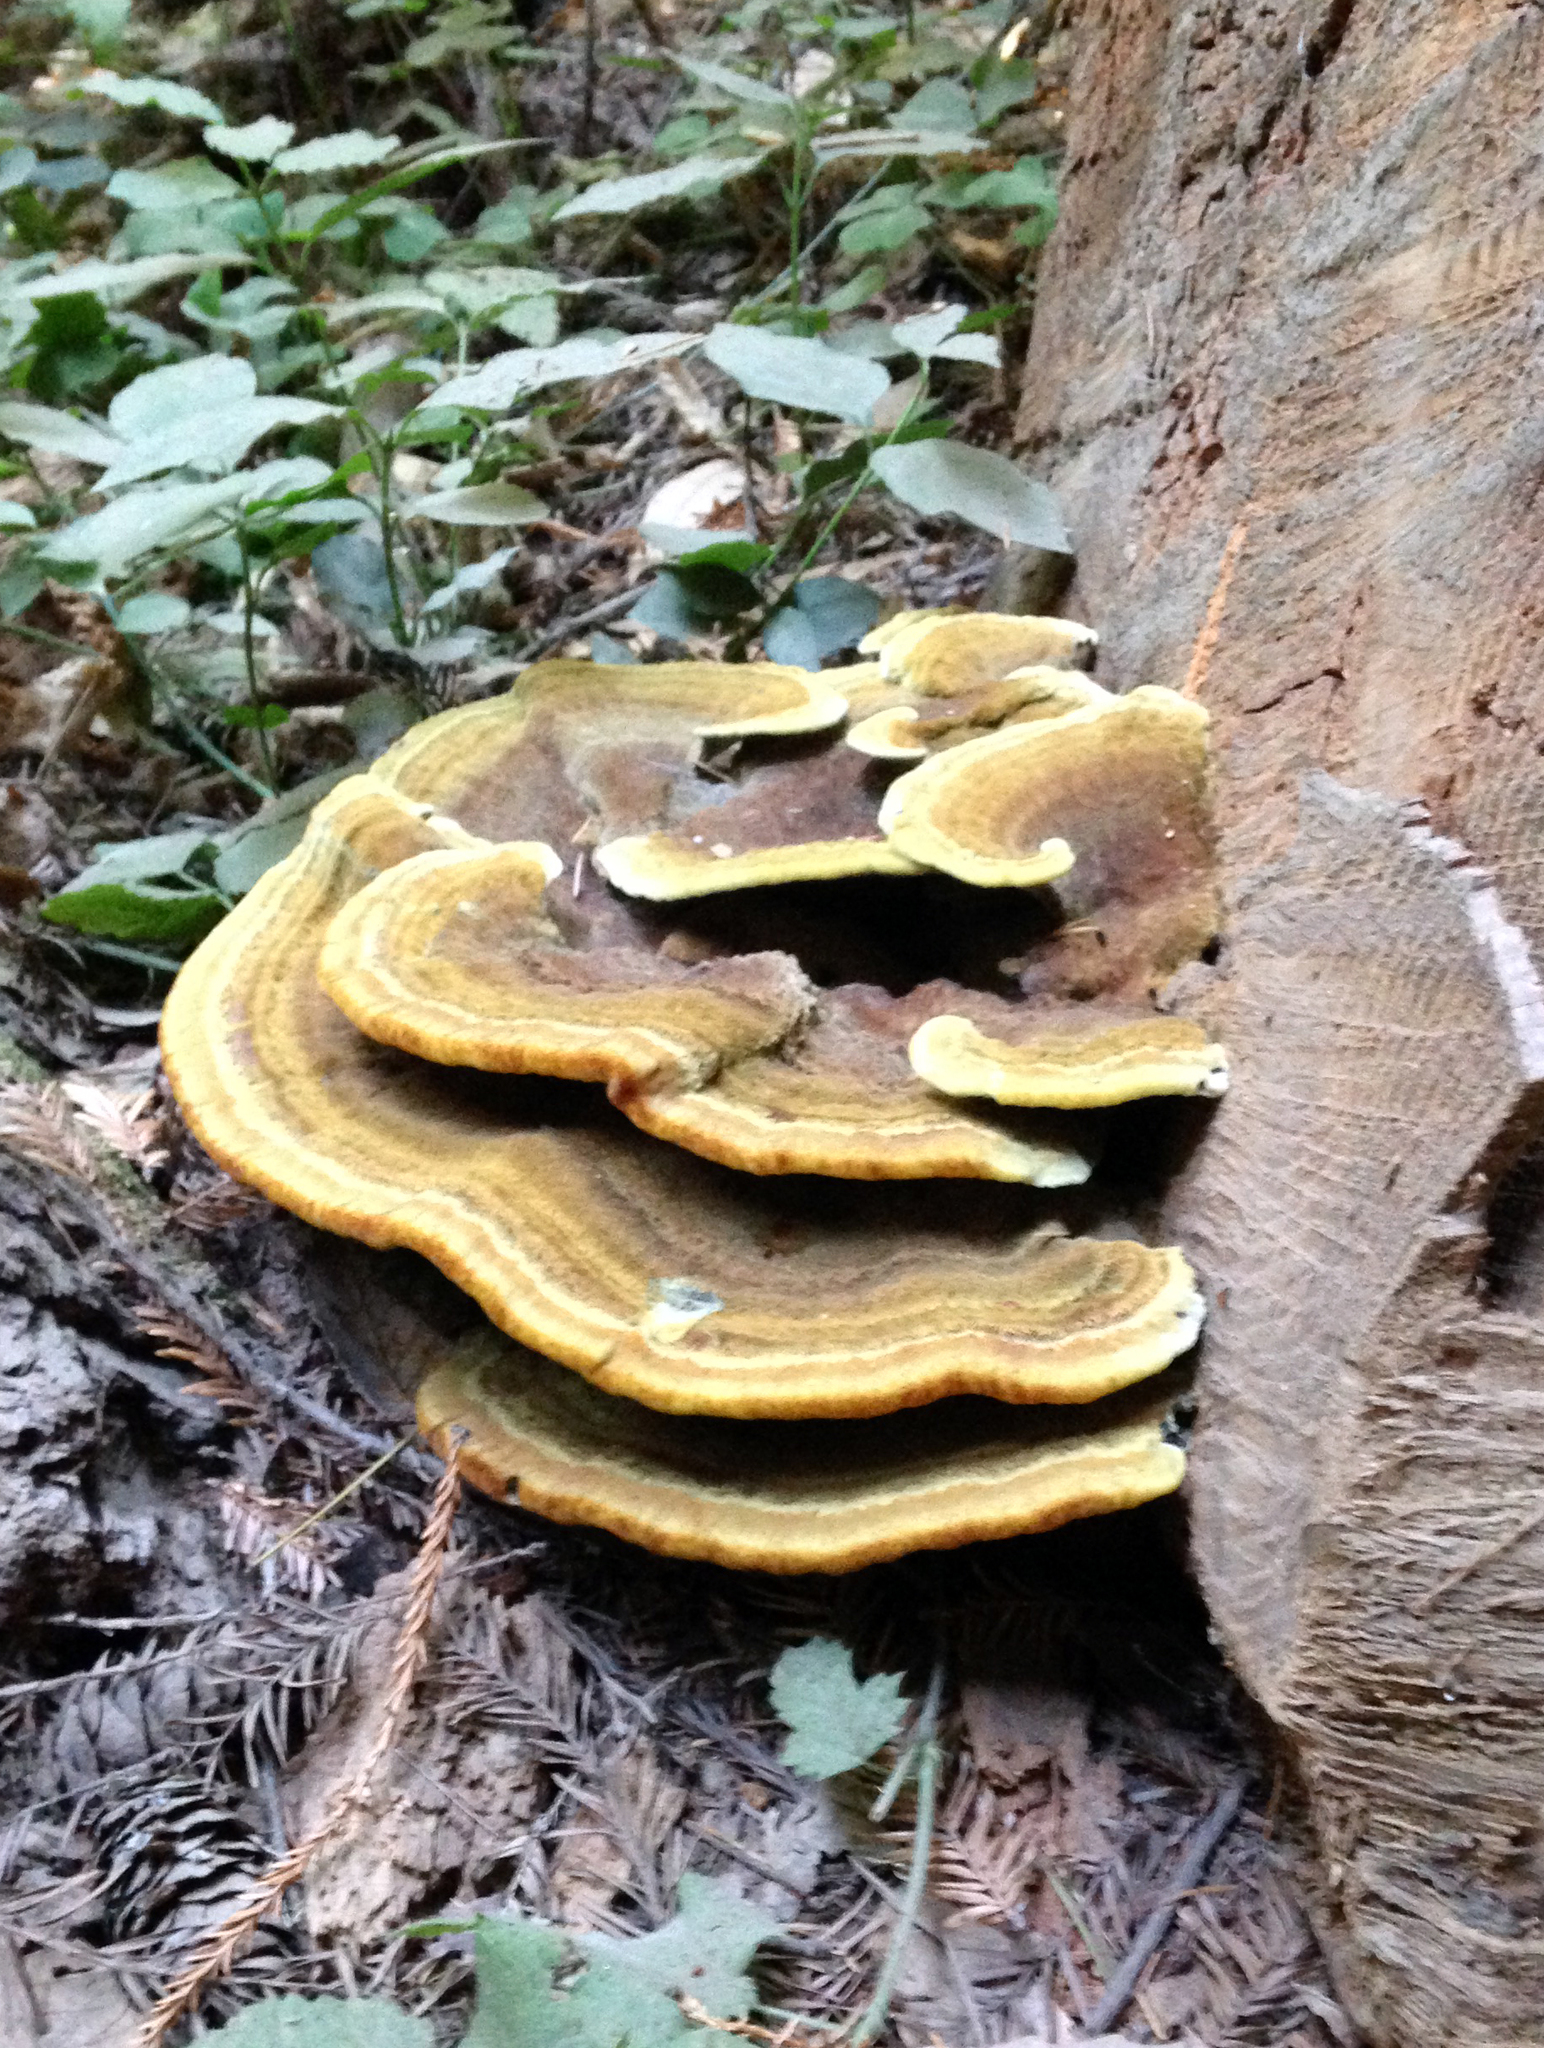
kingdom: Fungi
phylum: Basidiomycota
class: Agaricomycetes
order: Polyporales
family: Laetiporaceae
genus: Phaeolus
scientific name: Phaeolus schweinitzii
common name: Dyer's mazegill
